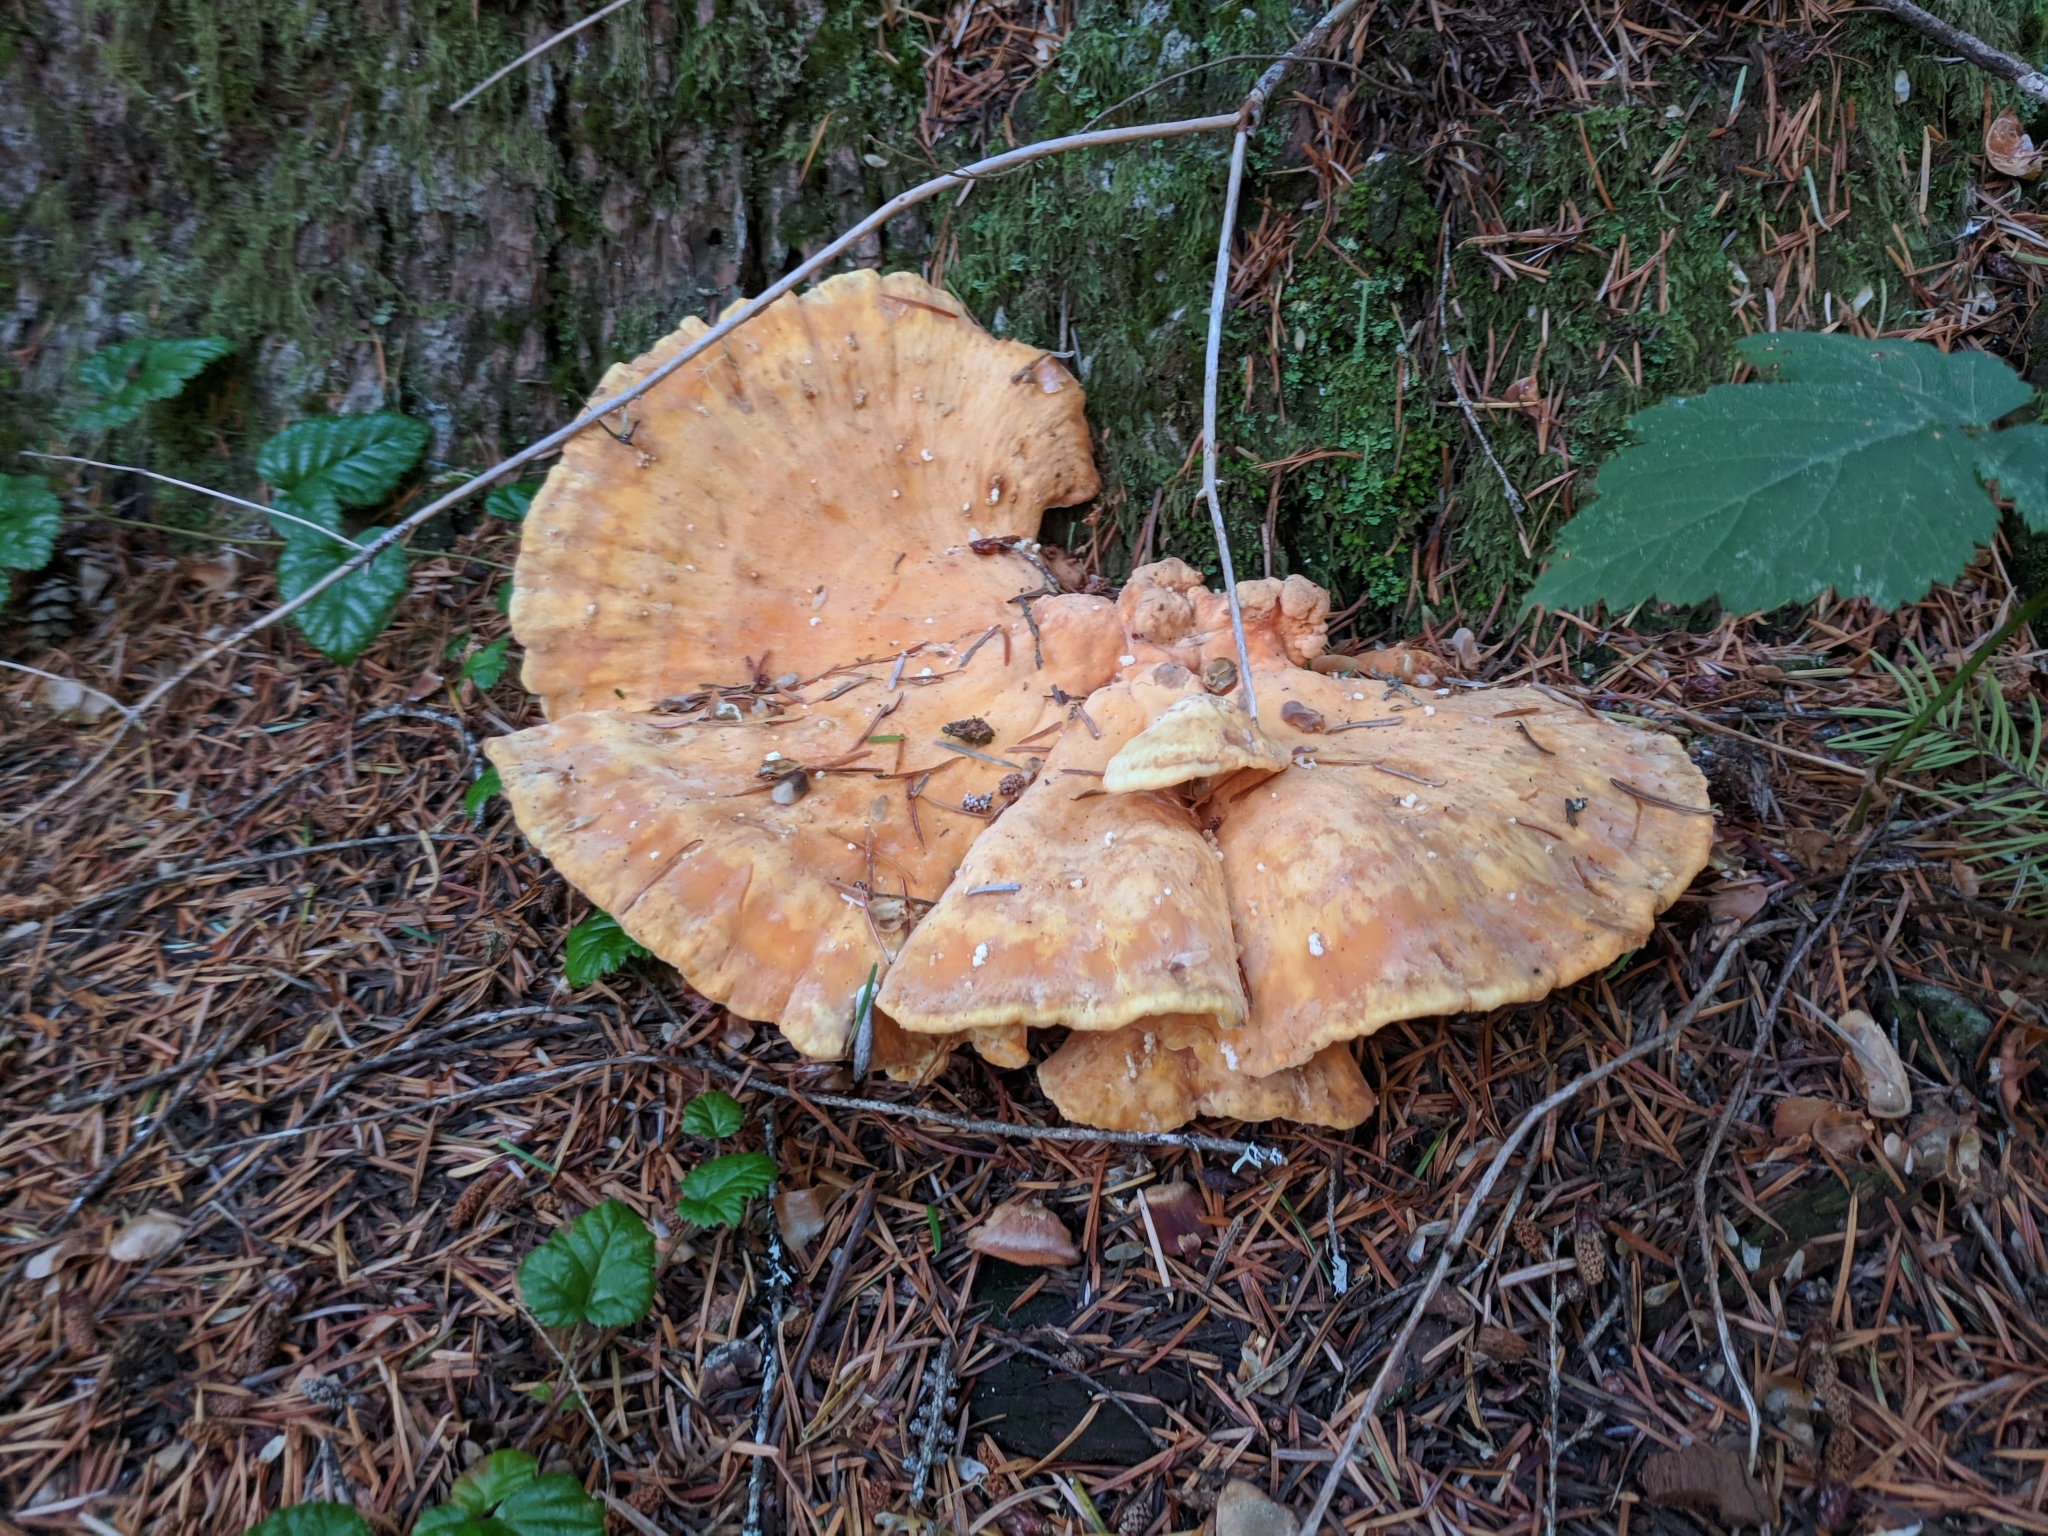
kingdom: Fungi
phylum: Basidiomycota
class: Agaricomycetes
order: Polyporales
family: Laetiporaceae
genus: Laetiporus
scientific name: Laetiporus conifericola
